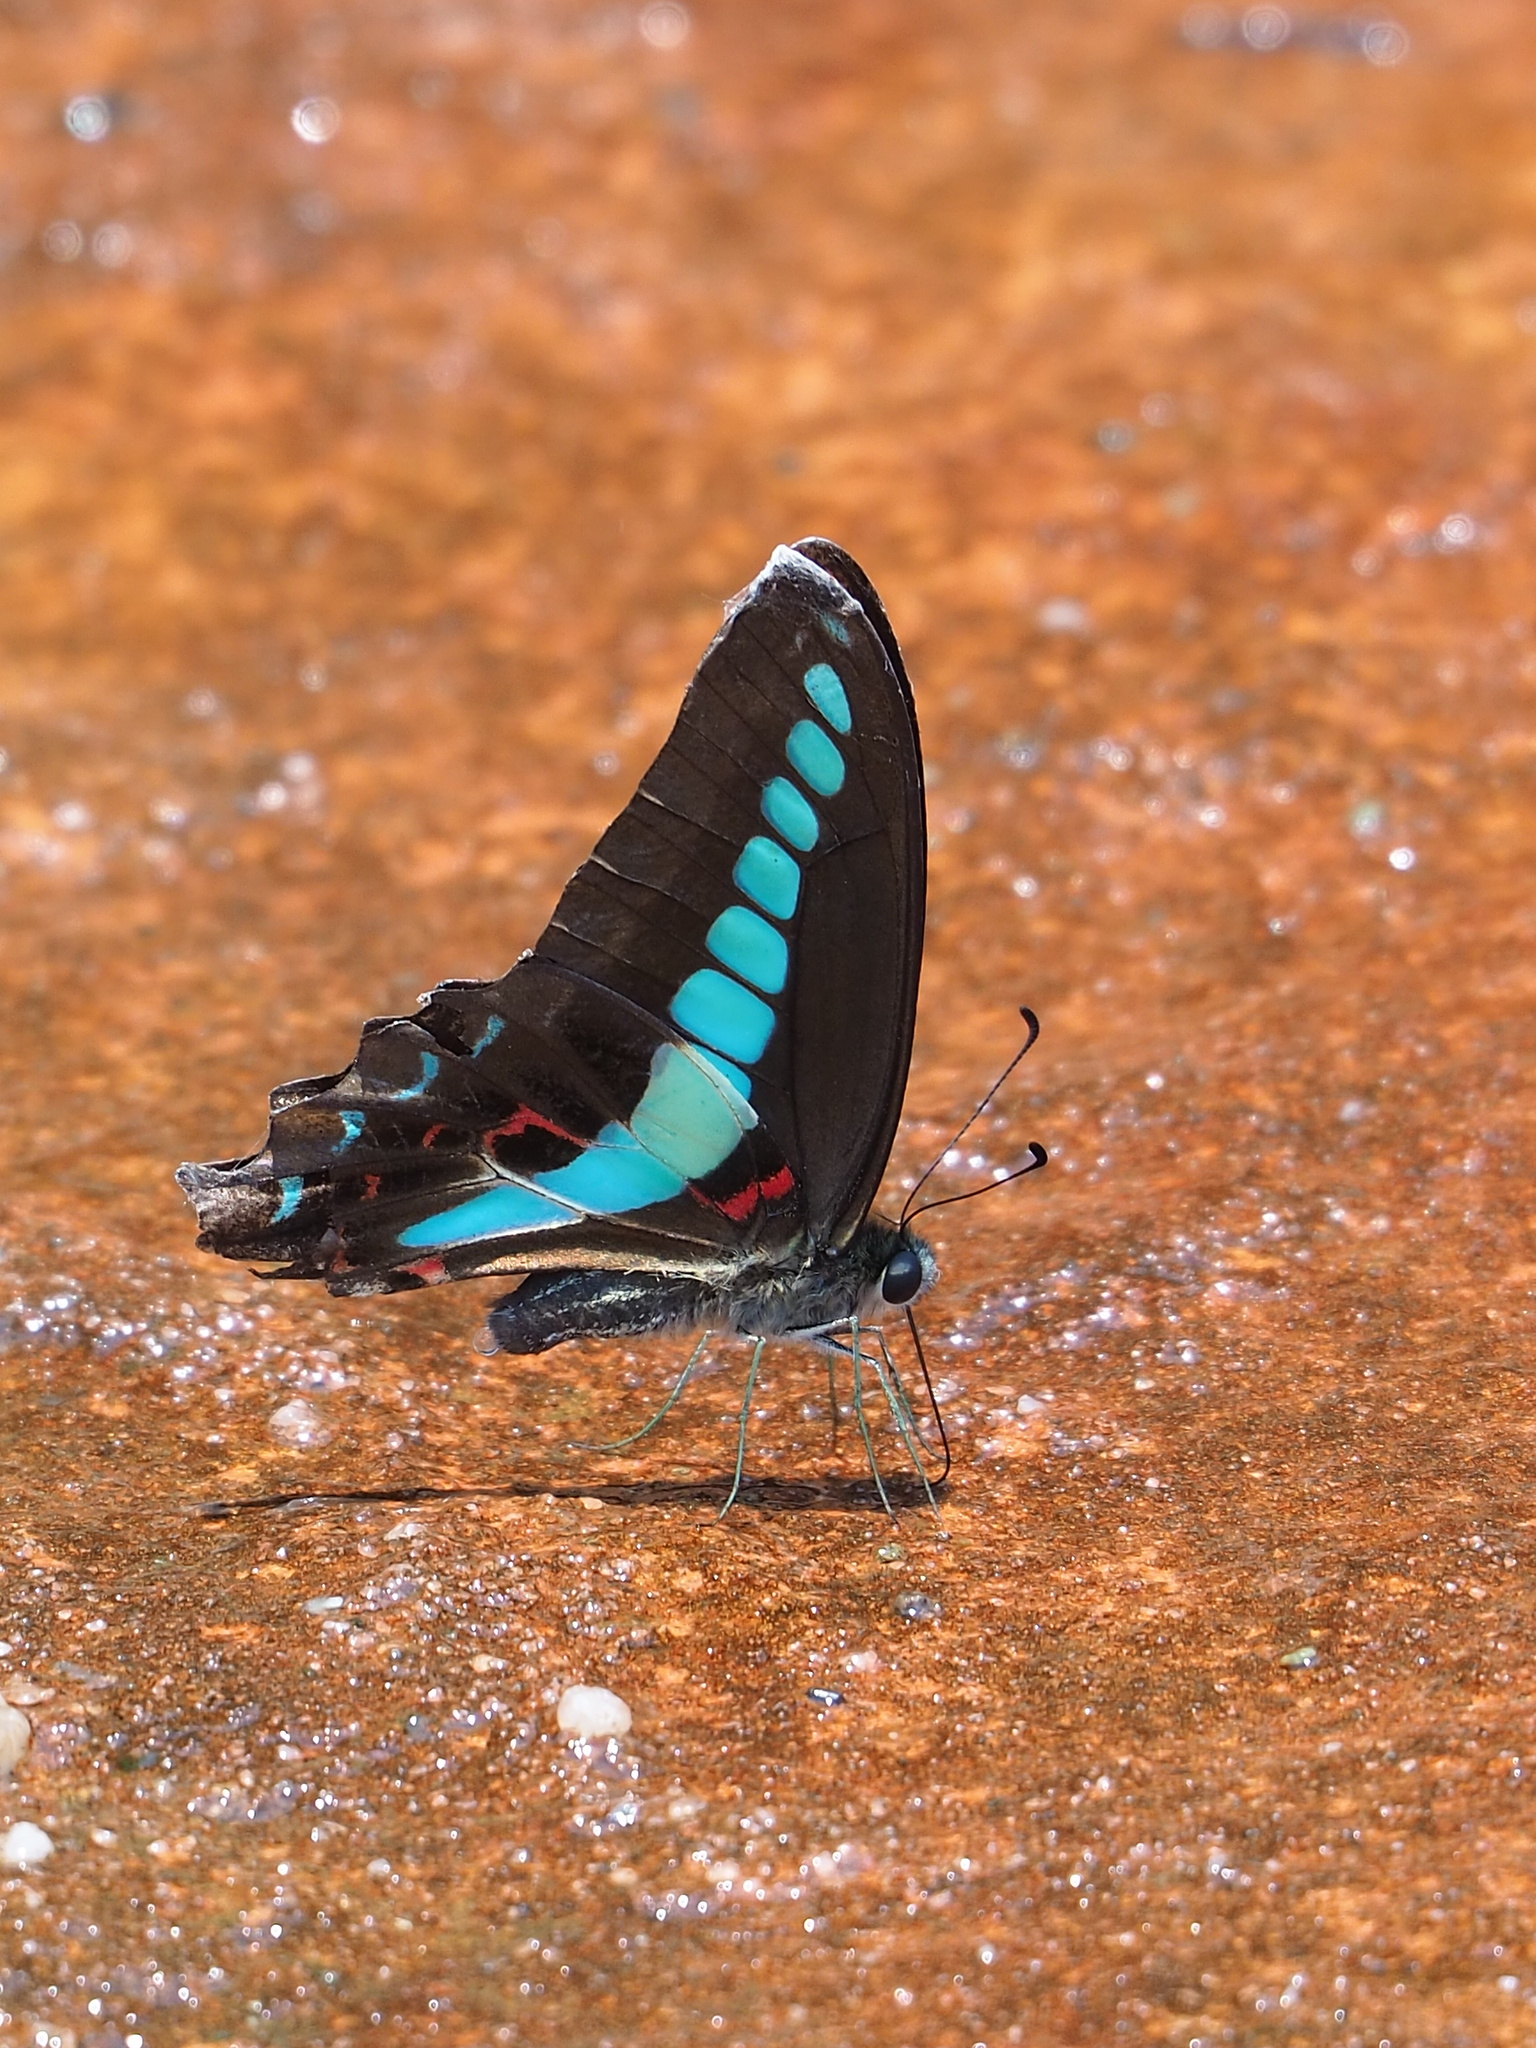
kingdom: Fungi
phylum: Ascomycota
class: Sordariomycetes
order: Microascales
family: Microascaceae
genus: Graphium
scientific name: Graphium sarpedon
